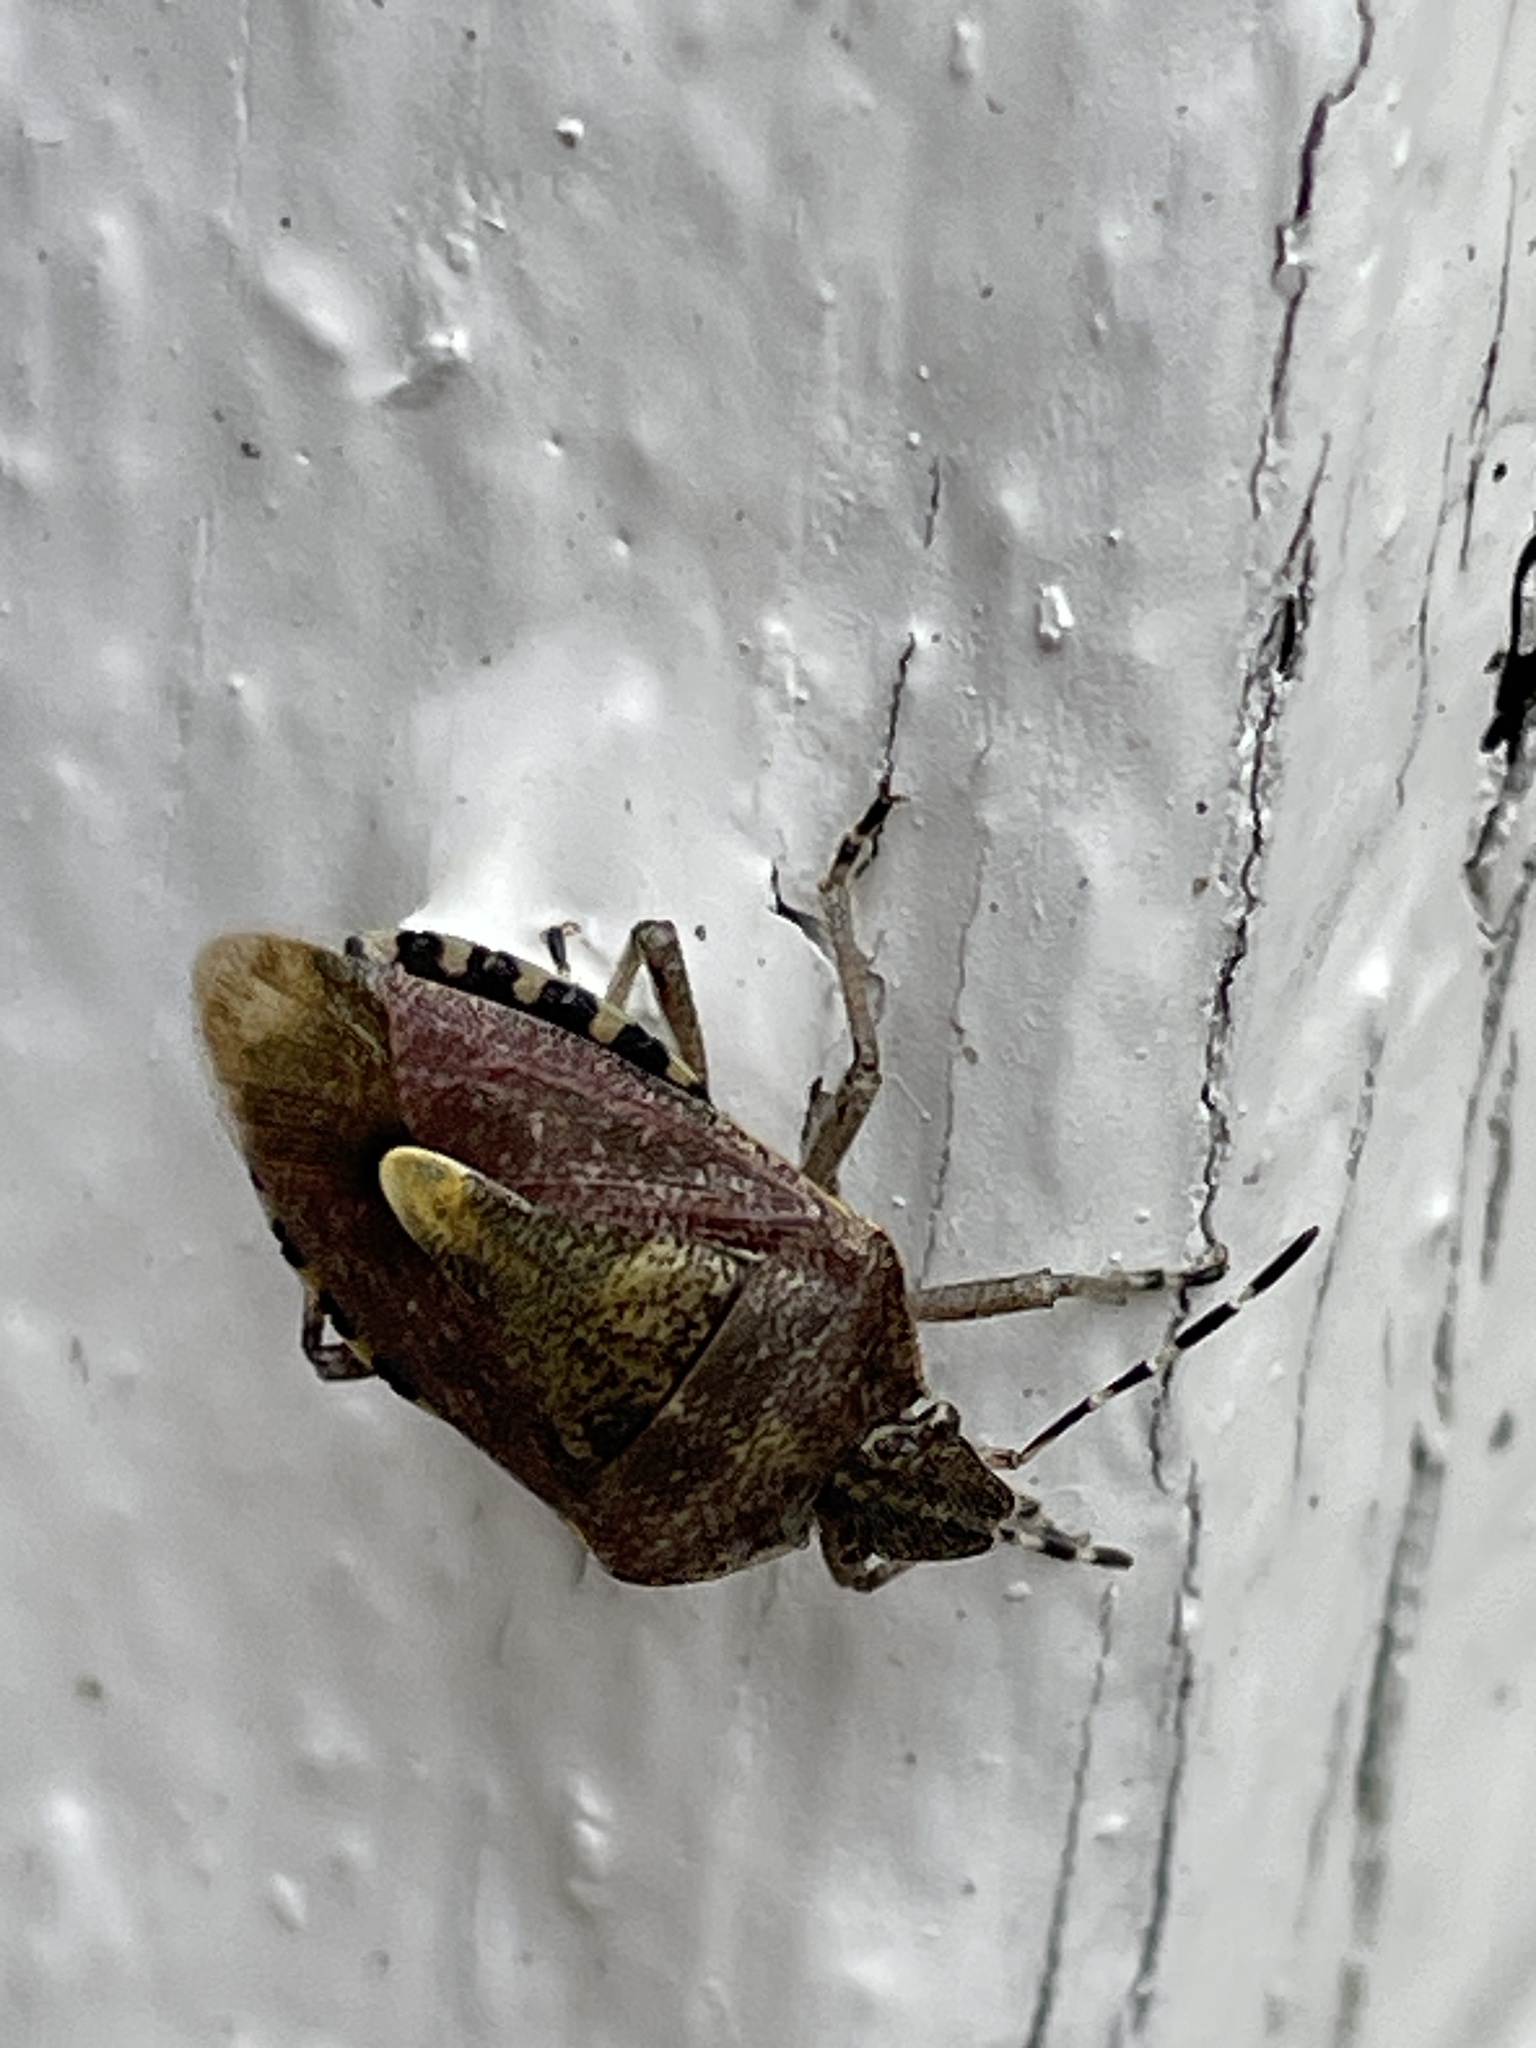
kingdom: Animalia
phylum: Arthropoda
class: Insecta
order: Hemiptera
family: Pentatomidae
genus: Dolycoris
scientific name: Dolycoris baccarum
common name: Sloe bug
